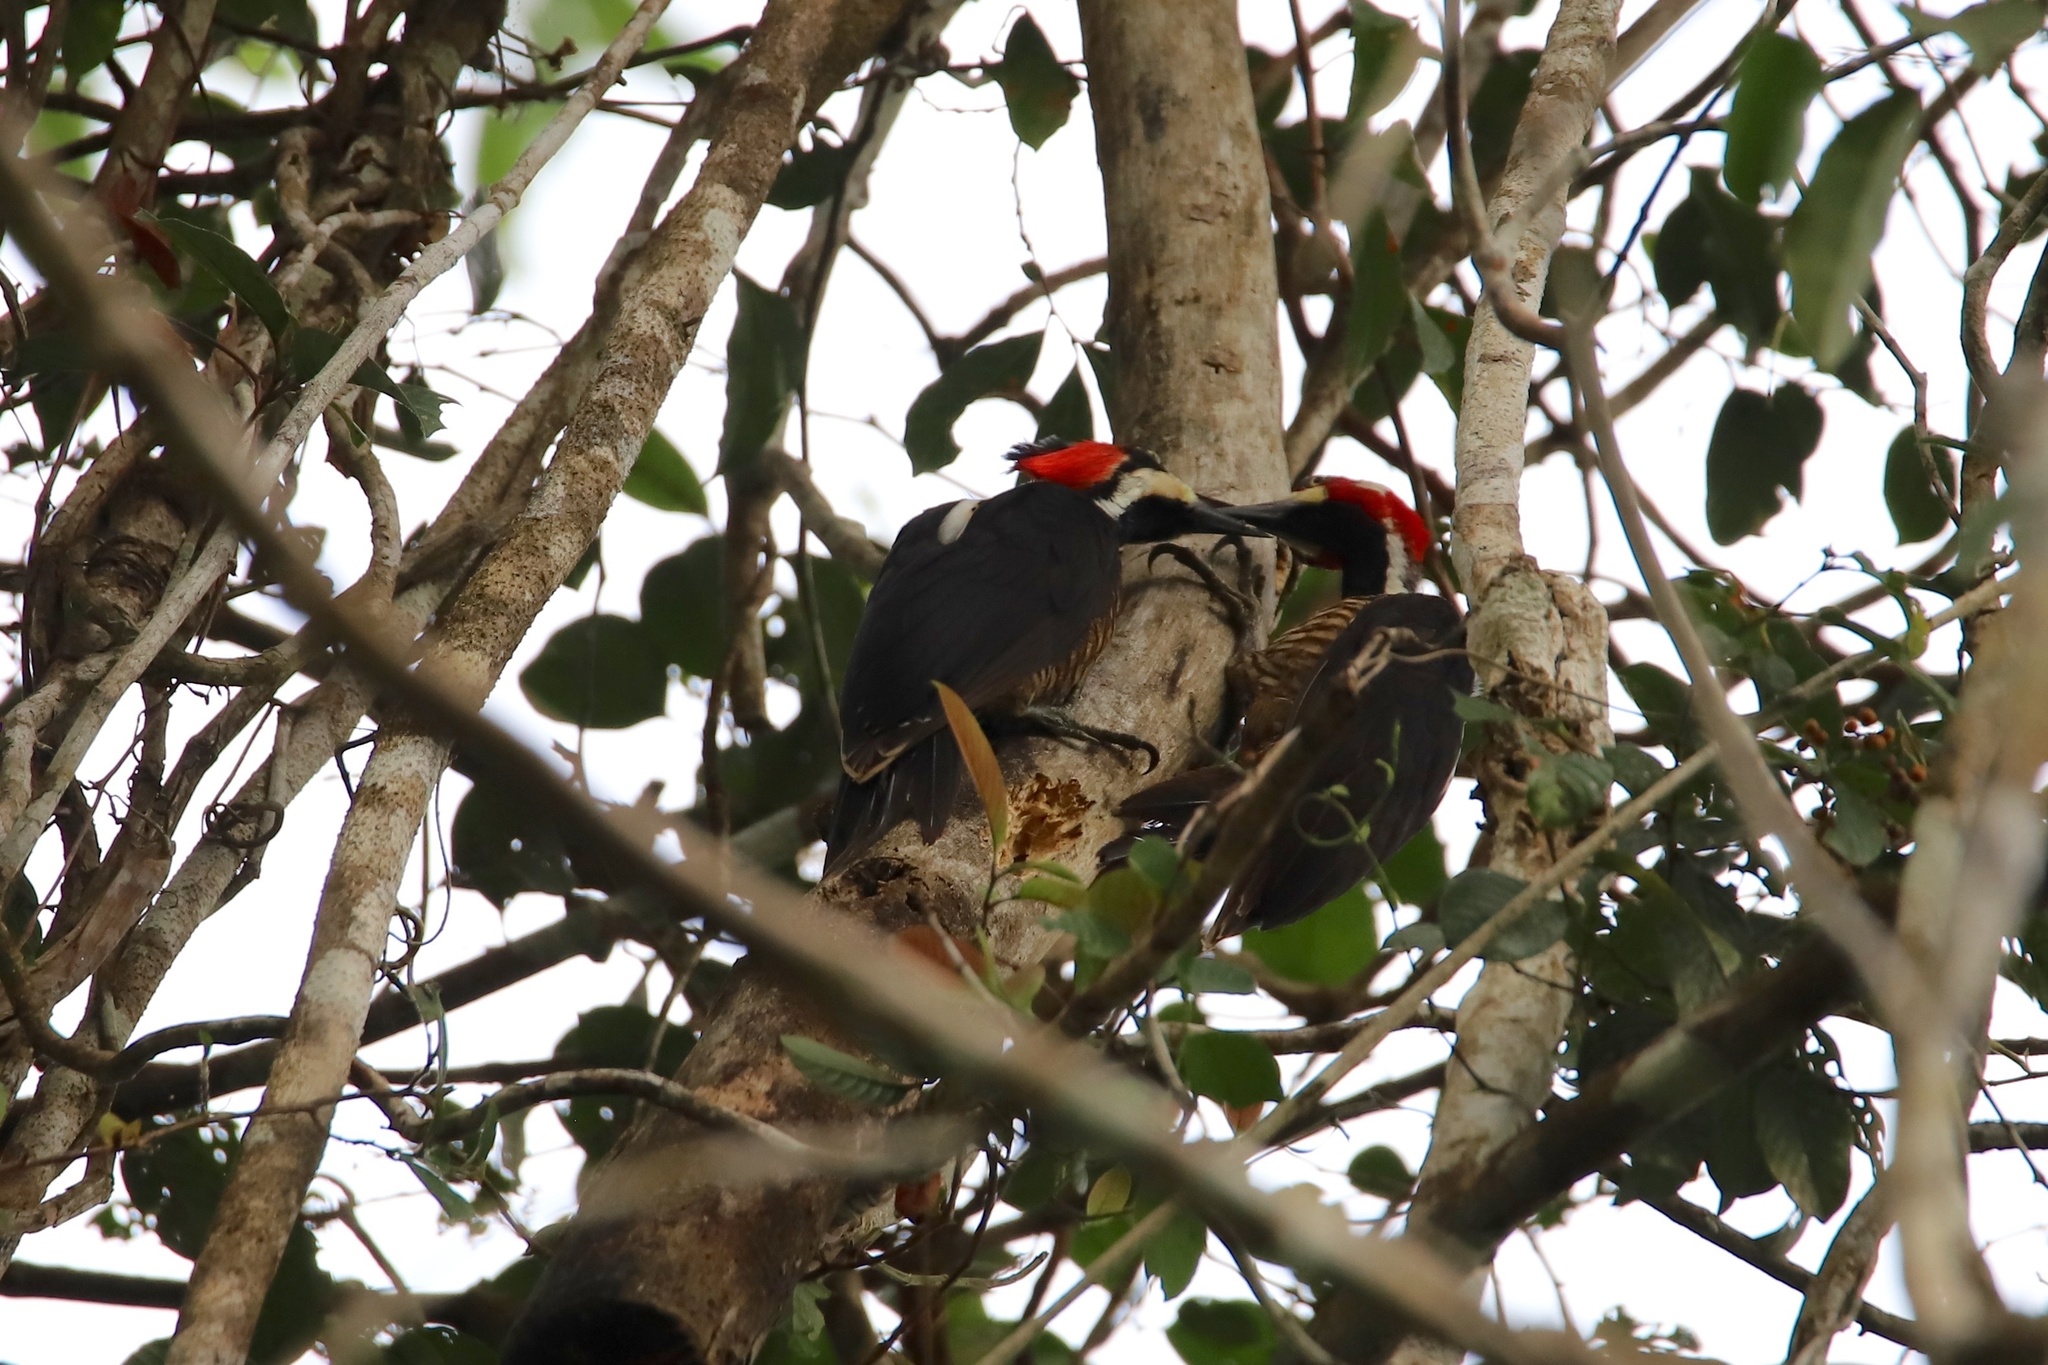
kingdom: Animalia
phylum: Chordata
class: Aves
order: Piciformes
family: Picidae
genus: Campephilus
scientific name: Campephilus melanoleucos
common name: Crimson-crested woodpecker
